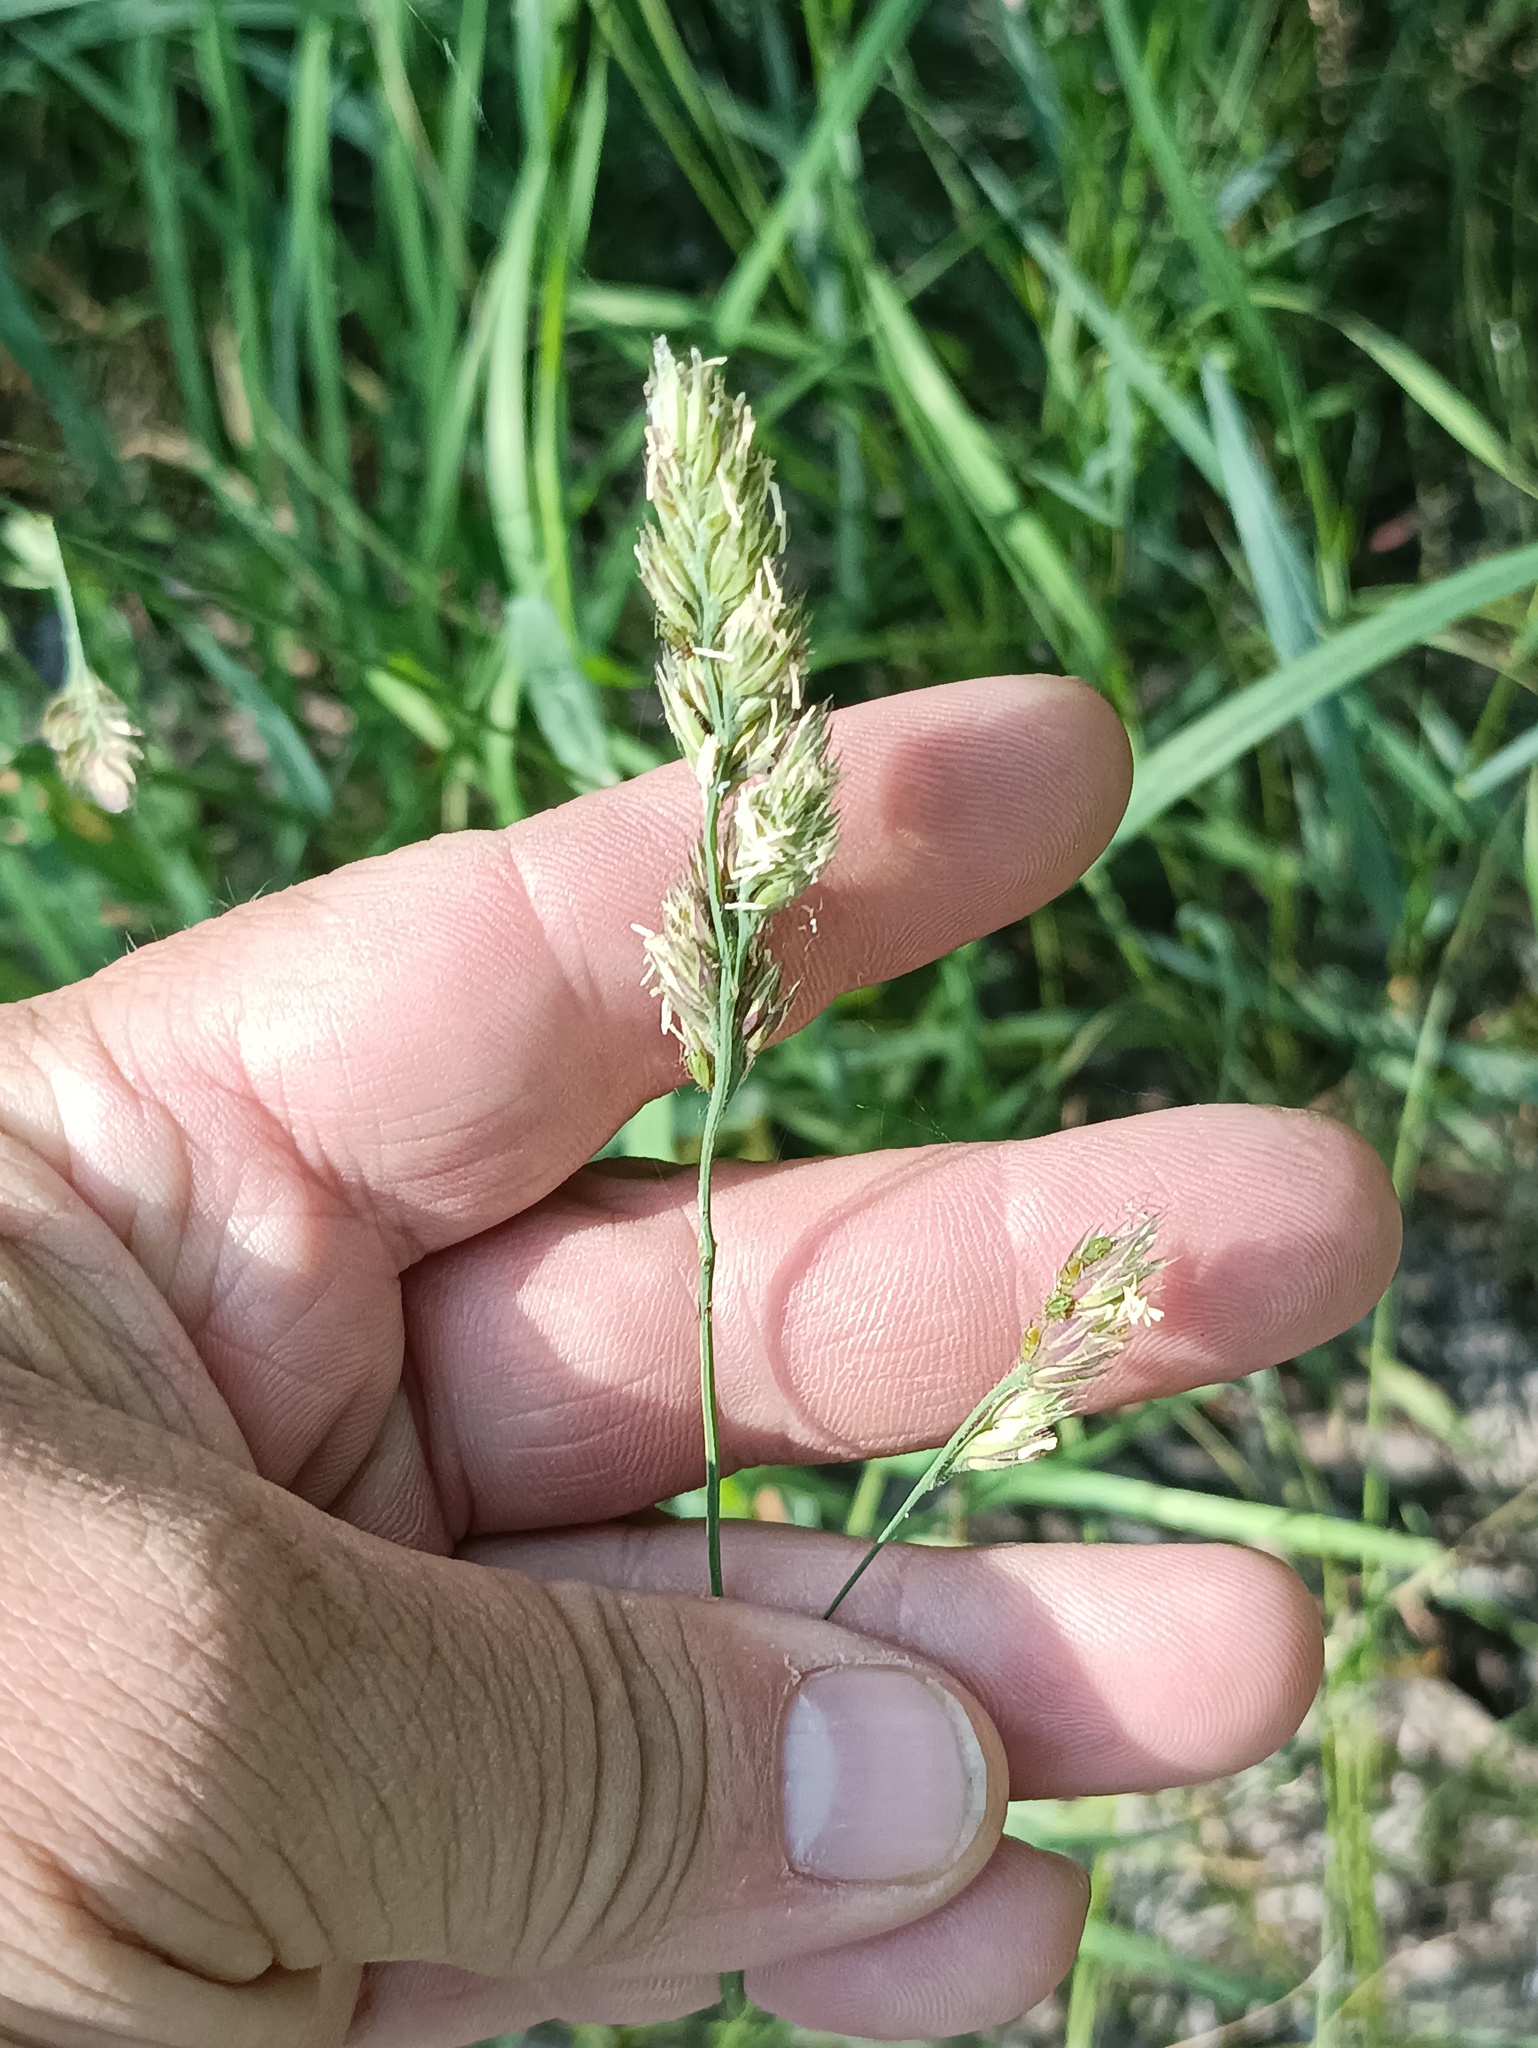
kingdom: Plantae
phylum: Tracheophyta
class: Liliopsida
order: Poales
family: Poaceae
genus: Dactylis
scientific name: Dactylis glomerata
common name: Orchardgrass
